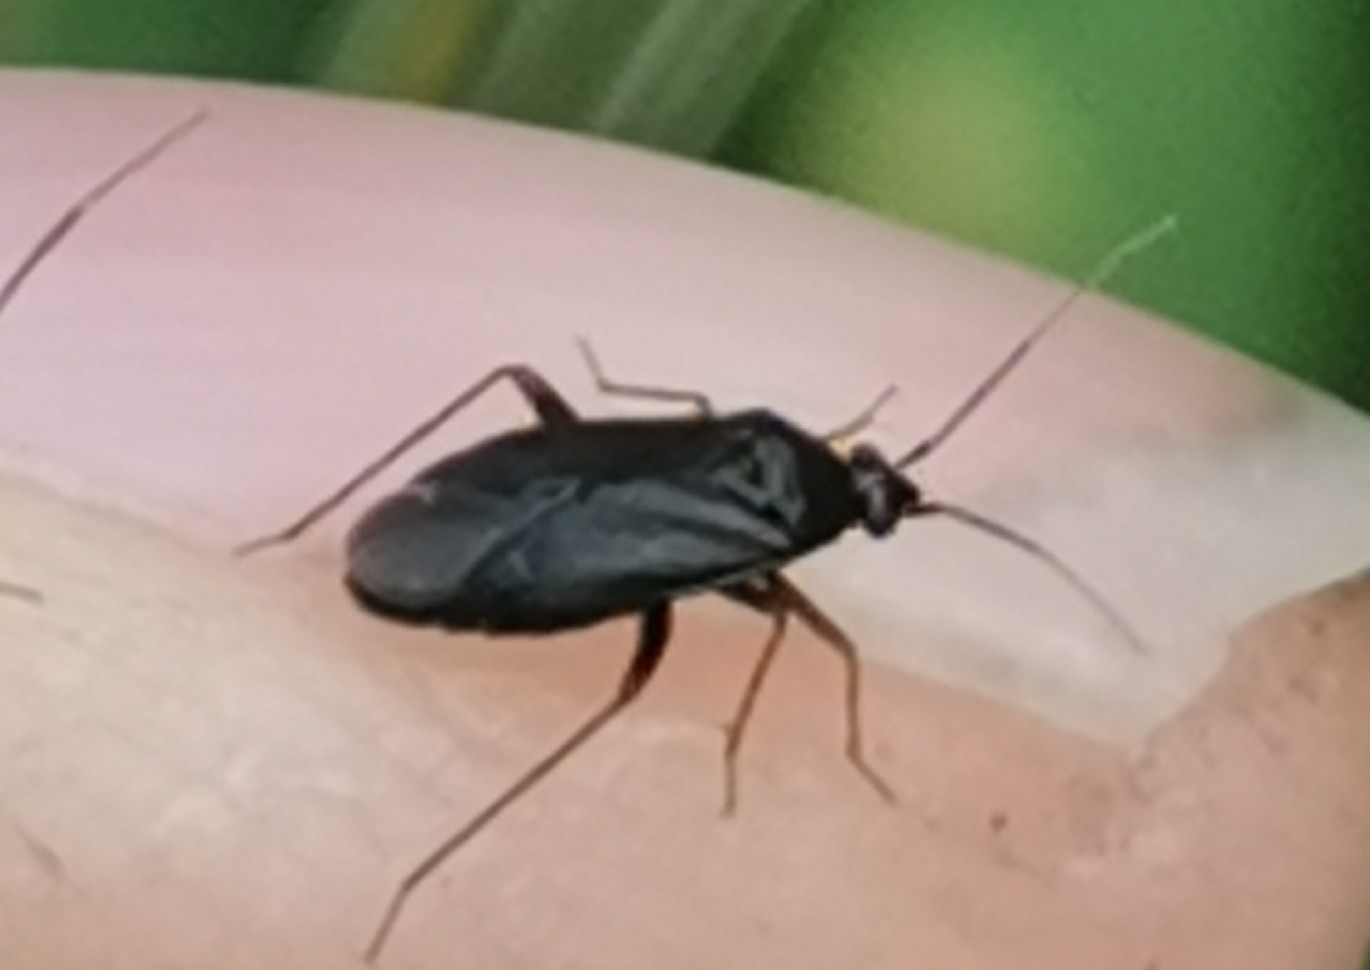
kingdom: Animalia
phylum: Arthropoda
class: Insecta
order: Hemiptera
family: Miridae
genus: Plagiognathus
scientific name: Plagiognathus arbustorum
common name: Plant bug
